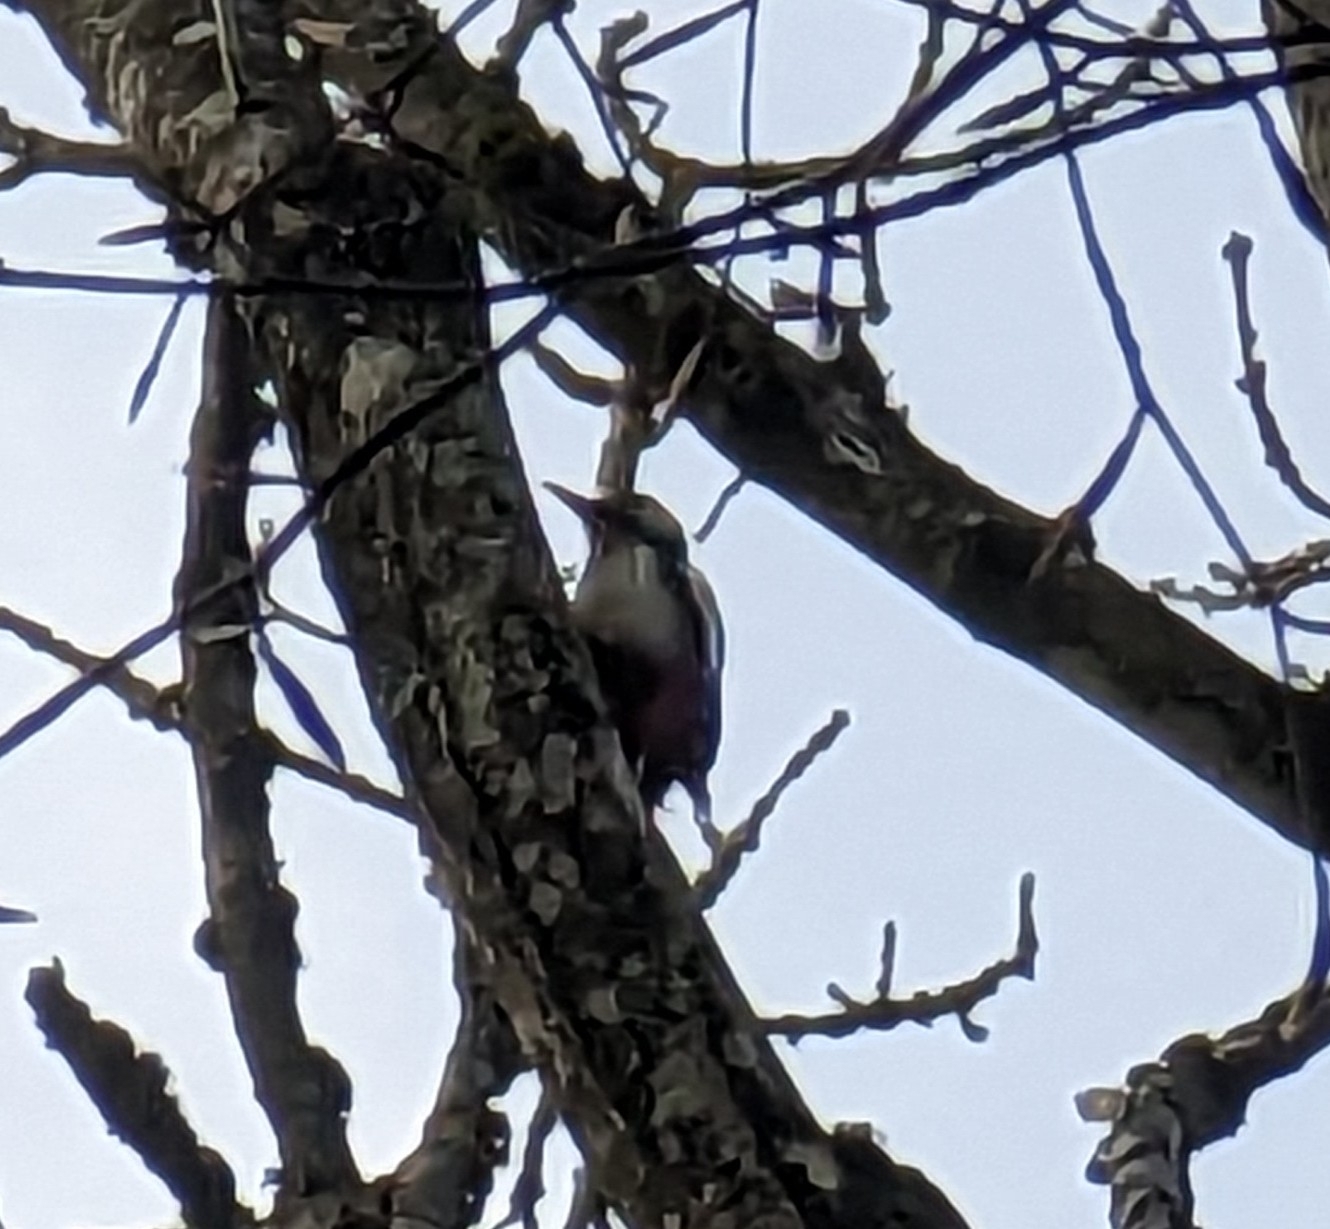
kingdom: Animalia
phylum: Chordata
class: Aves
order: Piciformes
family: Picidae
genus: Dendrocopos
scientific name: Dendrocopos major
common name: Great spotted woodpecker
